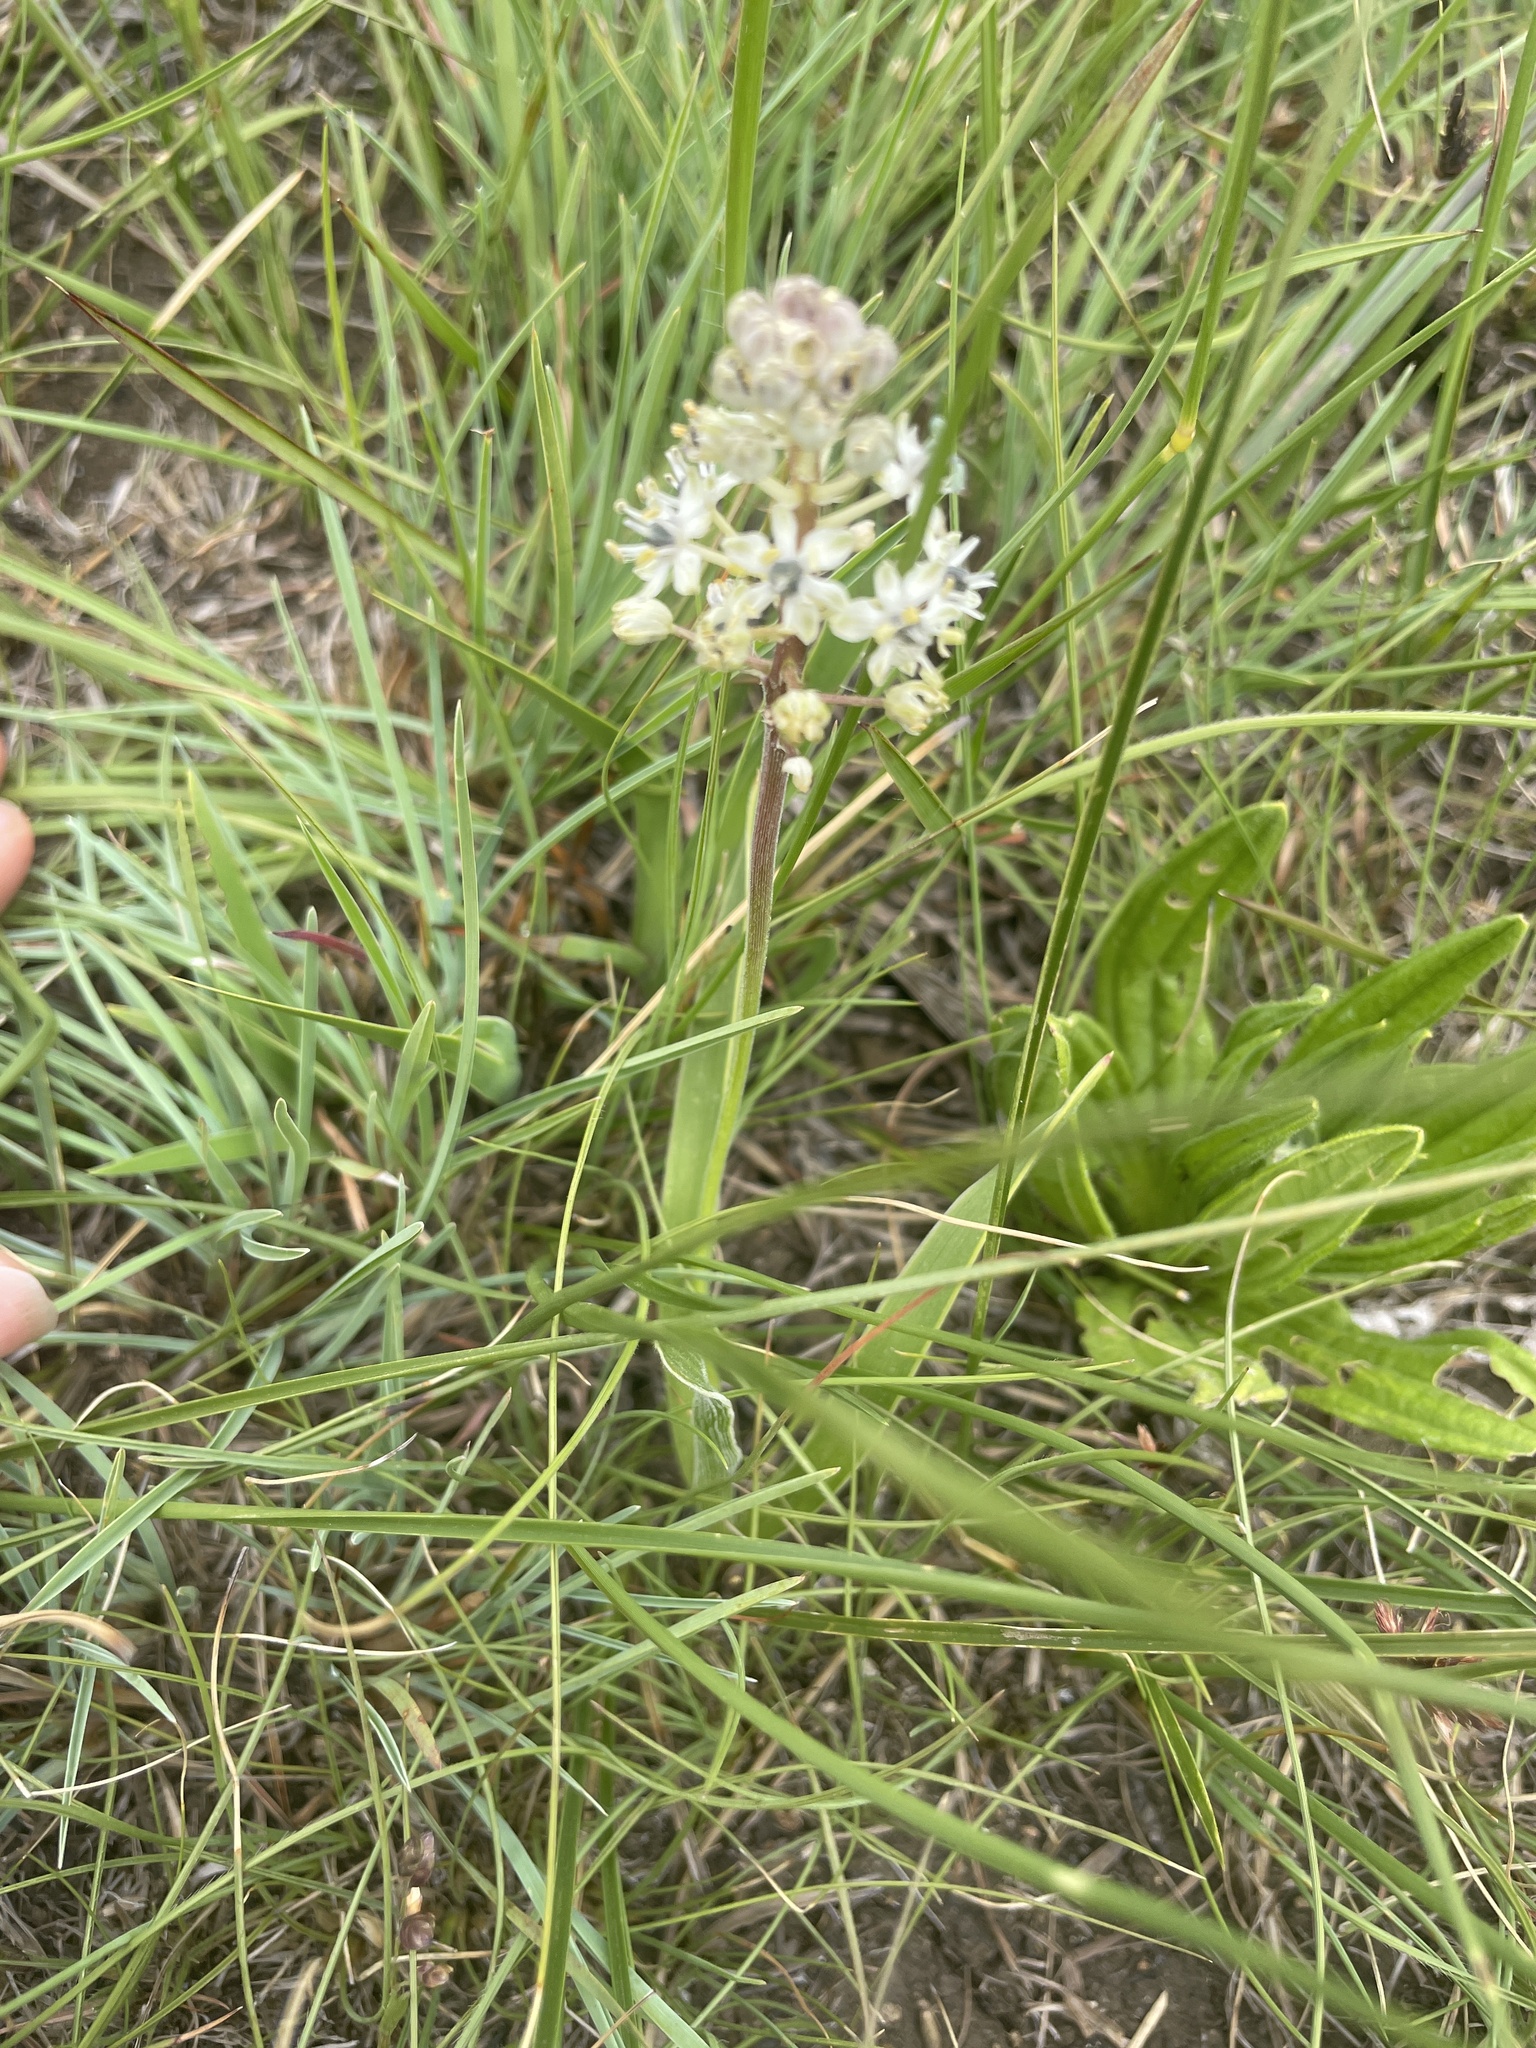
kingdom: Plantae
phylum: Tracheophyta
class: Liliopsida
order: Asparagales
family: Asparagaceae
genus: Schizocarphus
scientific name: Schizocarphus nervosus
